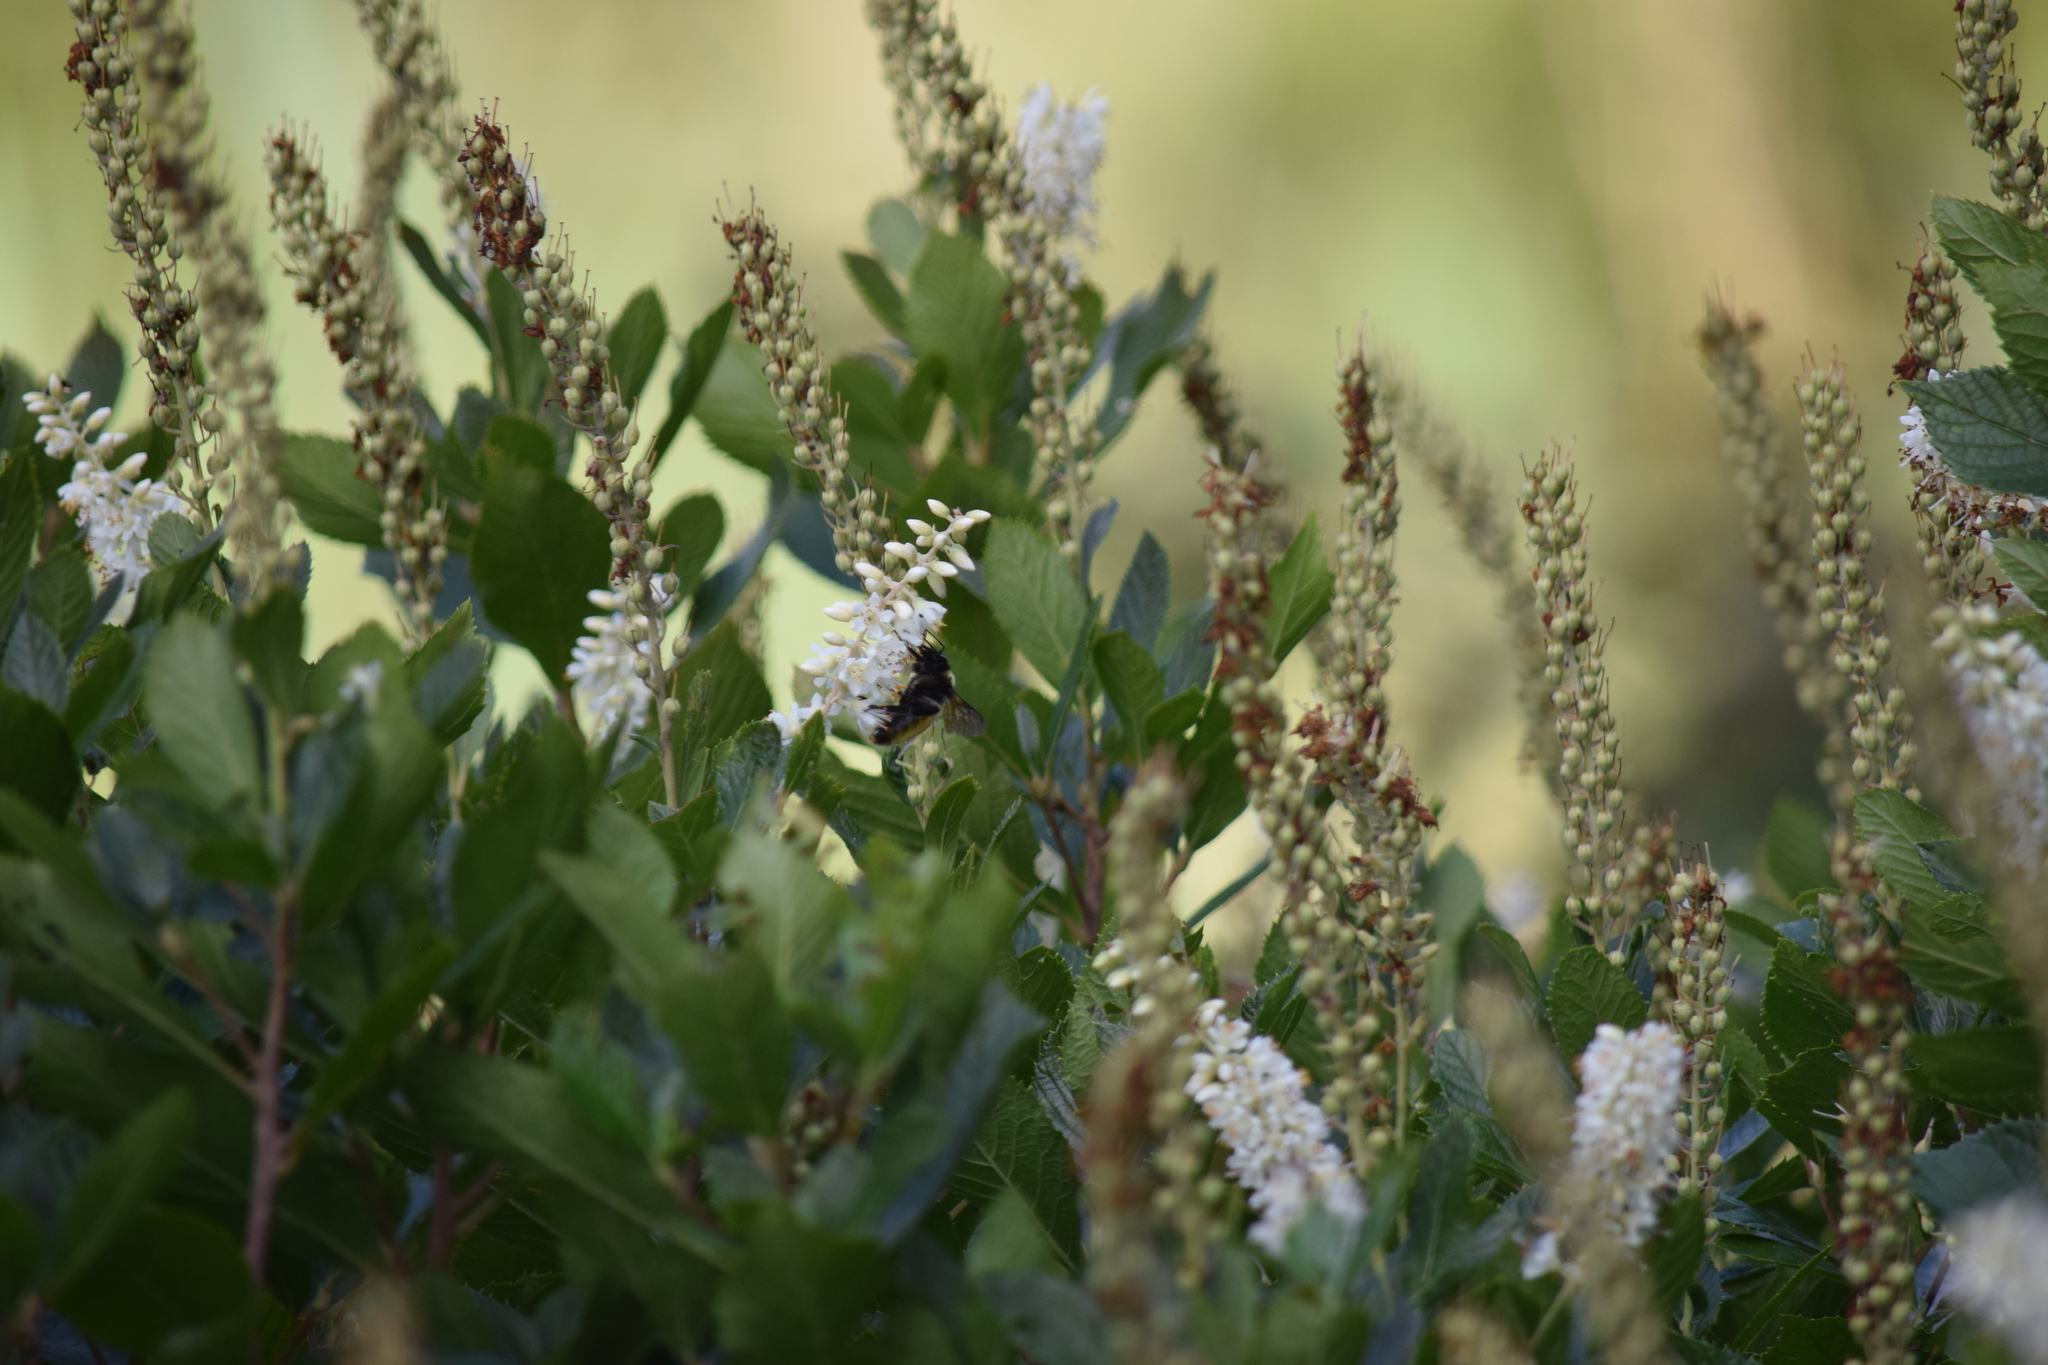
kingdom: Animalia
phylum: Arthropoda
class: Insecta
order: Hymenoptera
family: Apidae
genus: Bombus
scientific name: Bombus pensylvanicus
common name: Bumble bee
